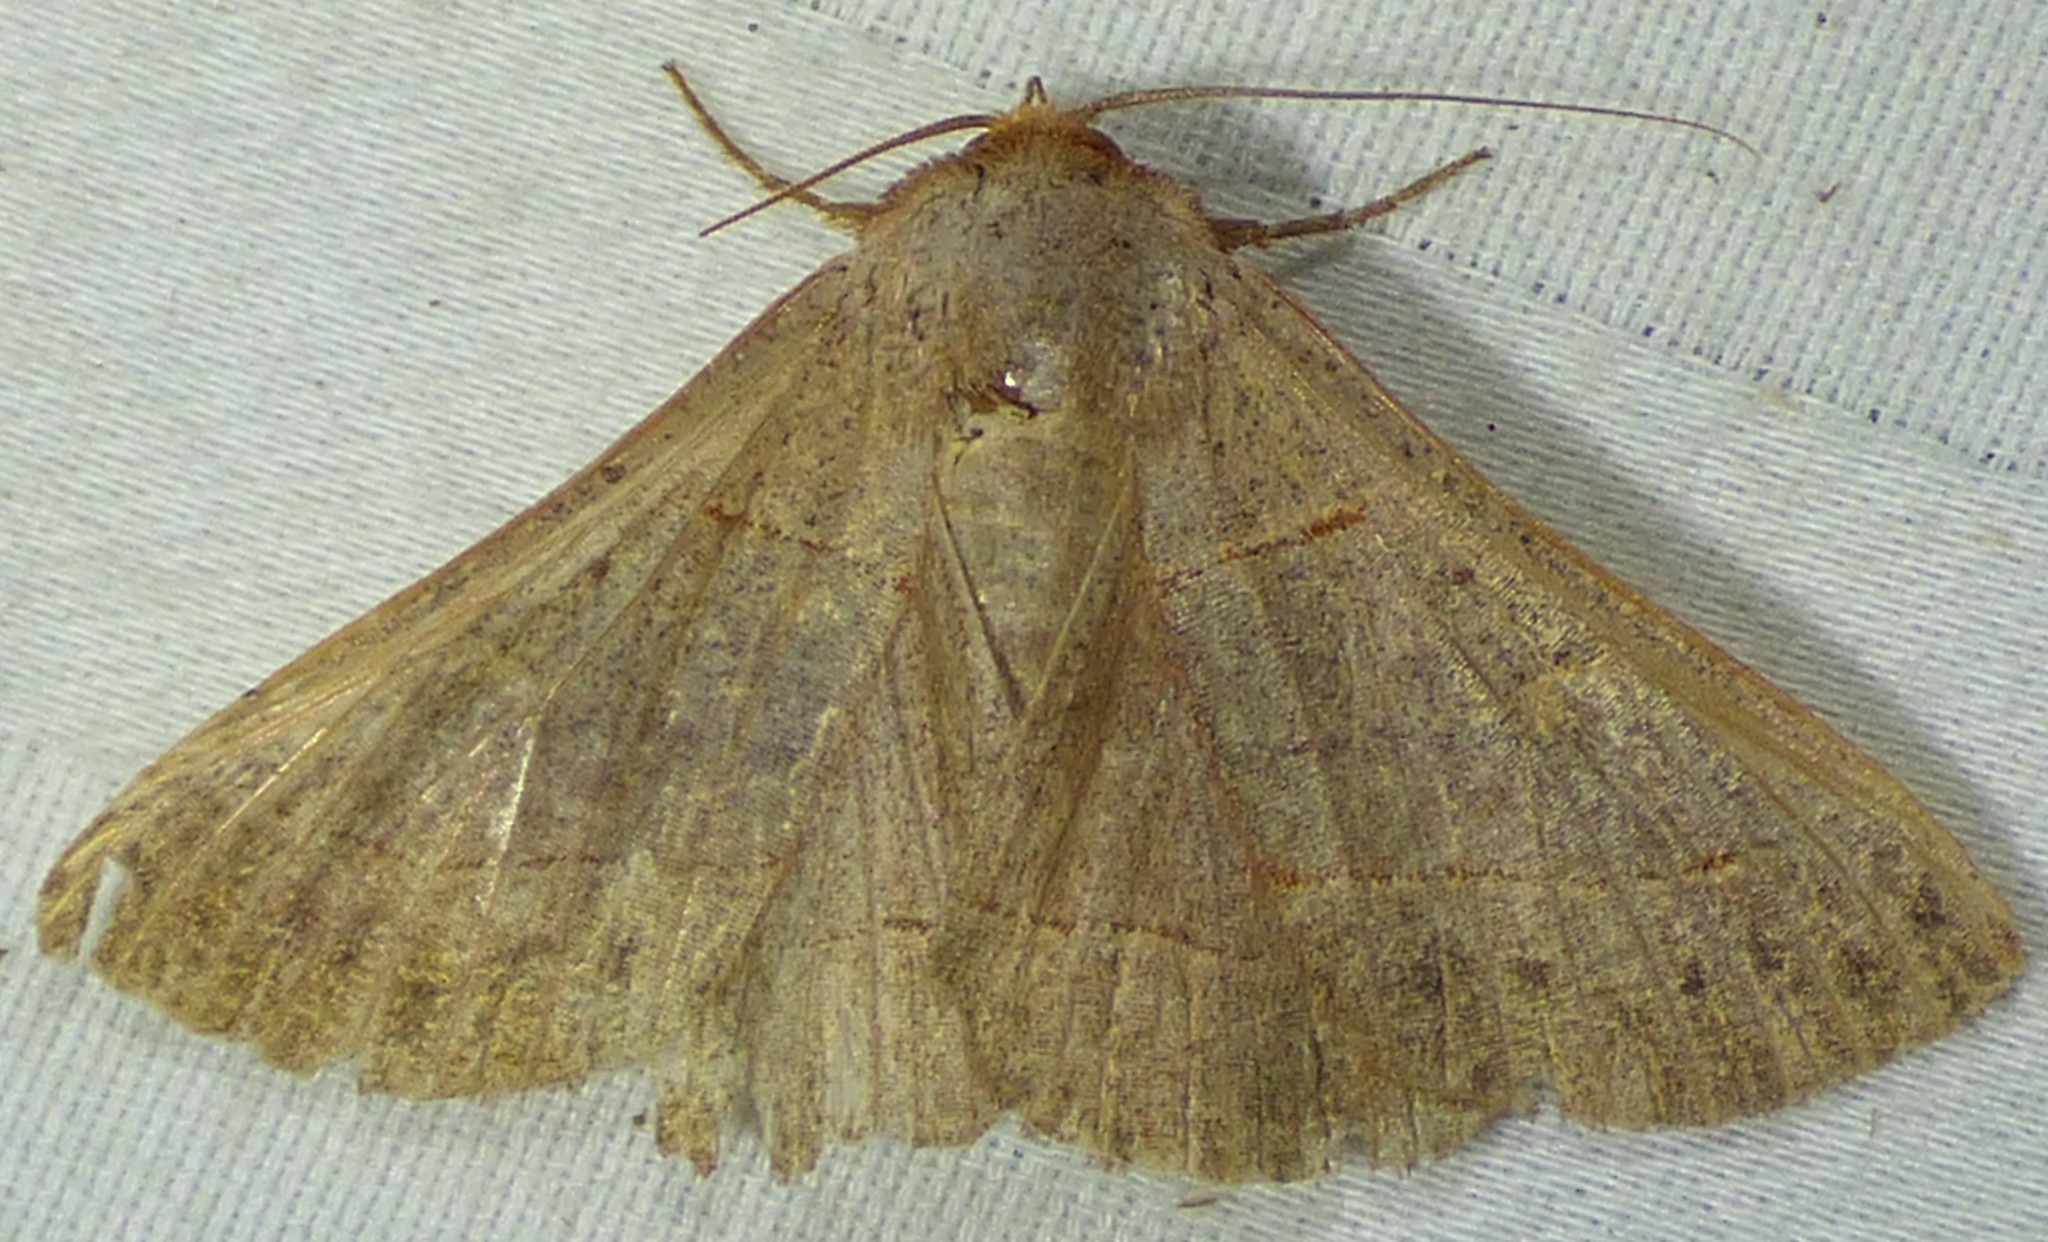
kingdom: Animalia
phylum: Arthropoda
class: Insecta
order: Lepidoptera
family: Erebidae
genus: Panopoda
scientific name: Panopoda rufimargo
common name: Red-lined panopoda moth
